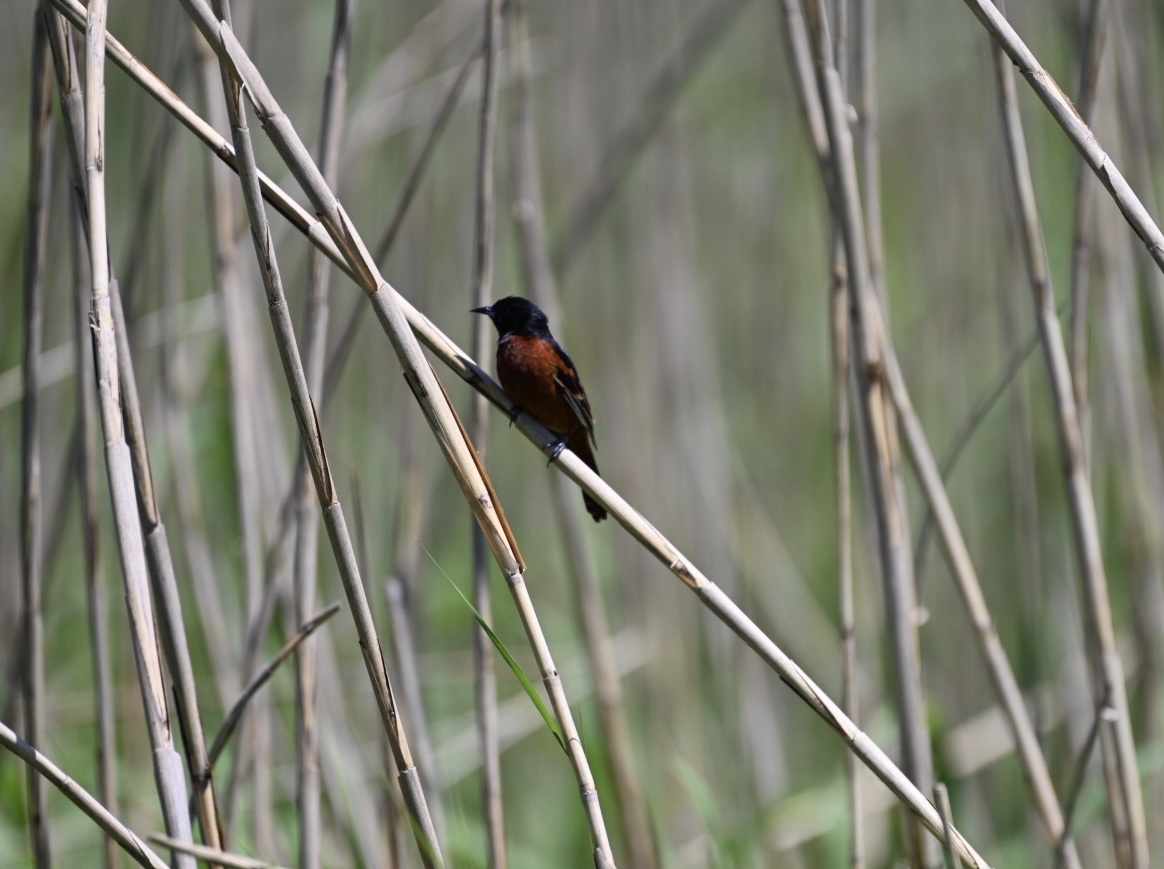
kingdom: Animalia
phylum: Chordata
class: Aves
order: Passeriformes
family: Icteridae
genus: Icterus
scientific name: Icterus spurius
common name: Orchard oriole
